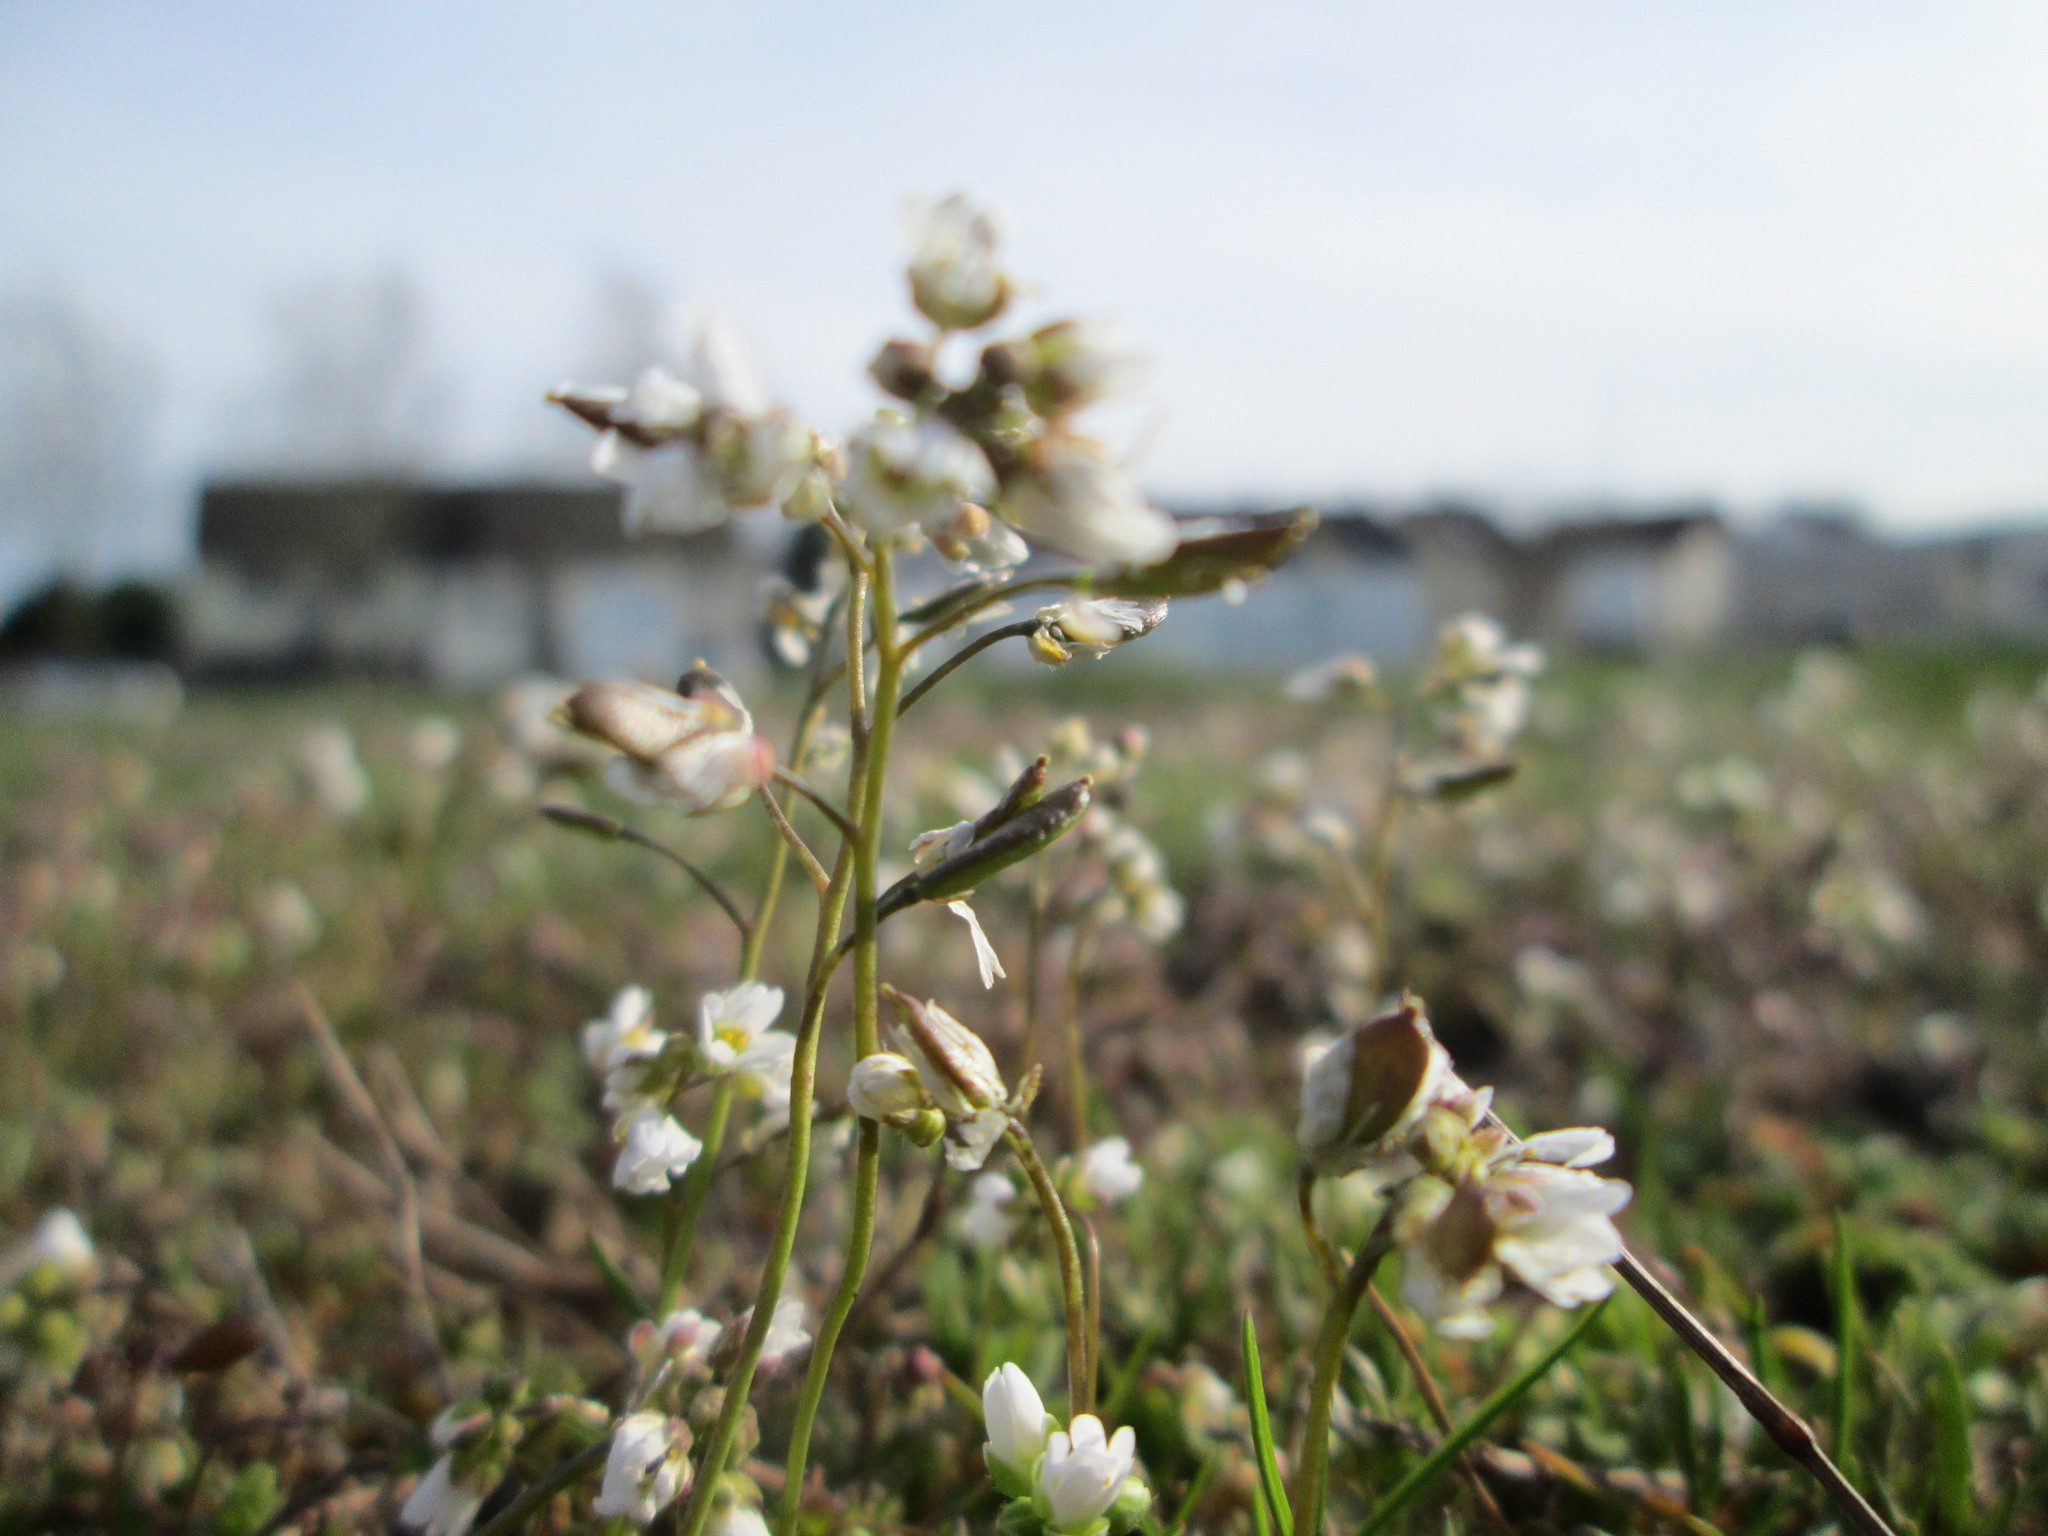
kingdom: Plantae
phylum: Tracheophyta
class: Magnoliopsida
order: Brassicales
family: Brassicaceae
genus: Draba
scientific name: Draba verna
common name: Spring draba
